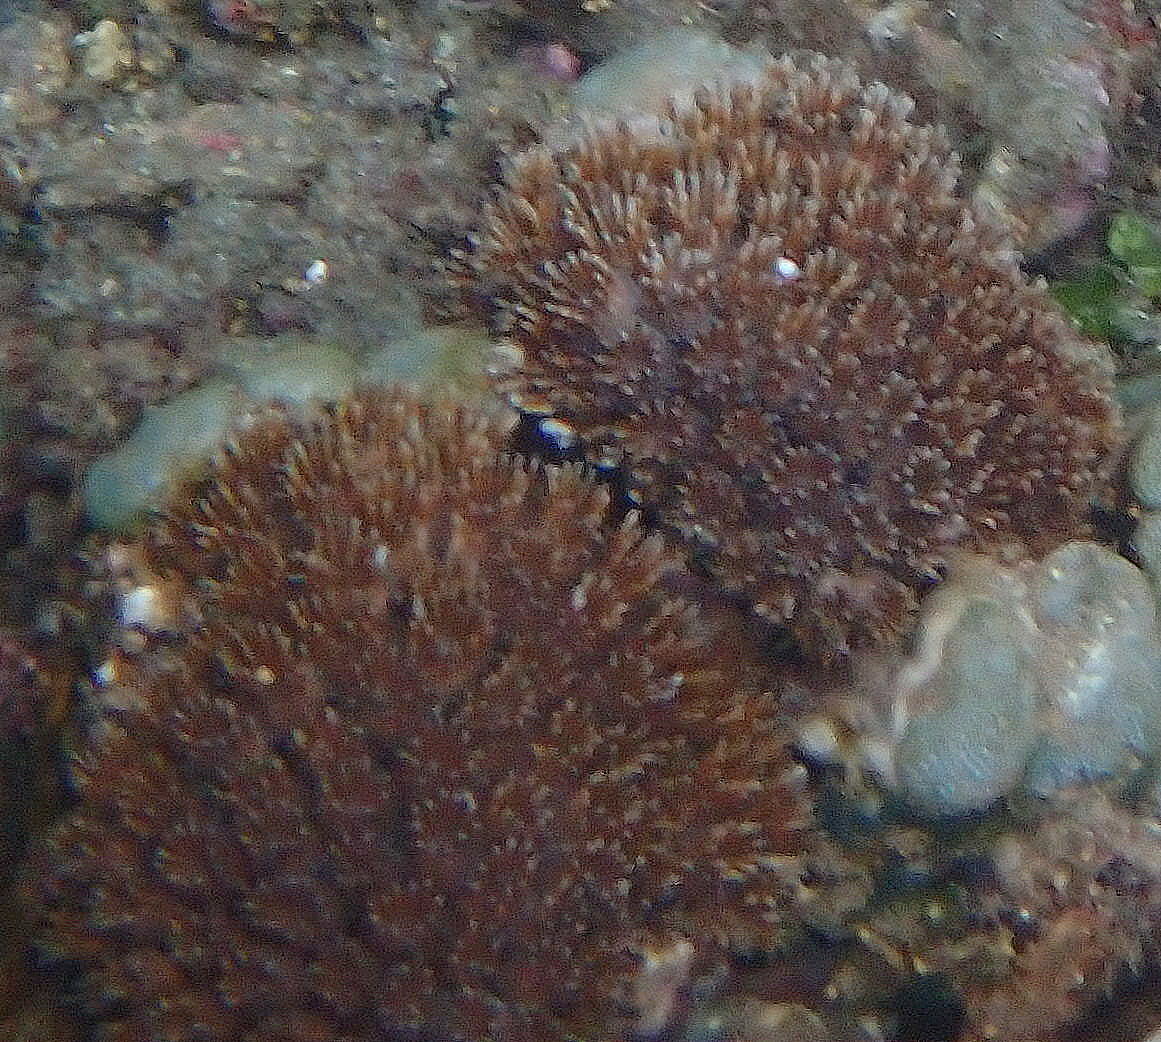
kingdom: Animalia
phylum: Cnidaria
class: Anthozoa
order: Scleractinia
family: Euphylliidae
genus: Galaxea
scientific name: Galaxea fascicularis
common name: Octopus coral
